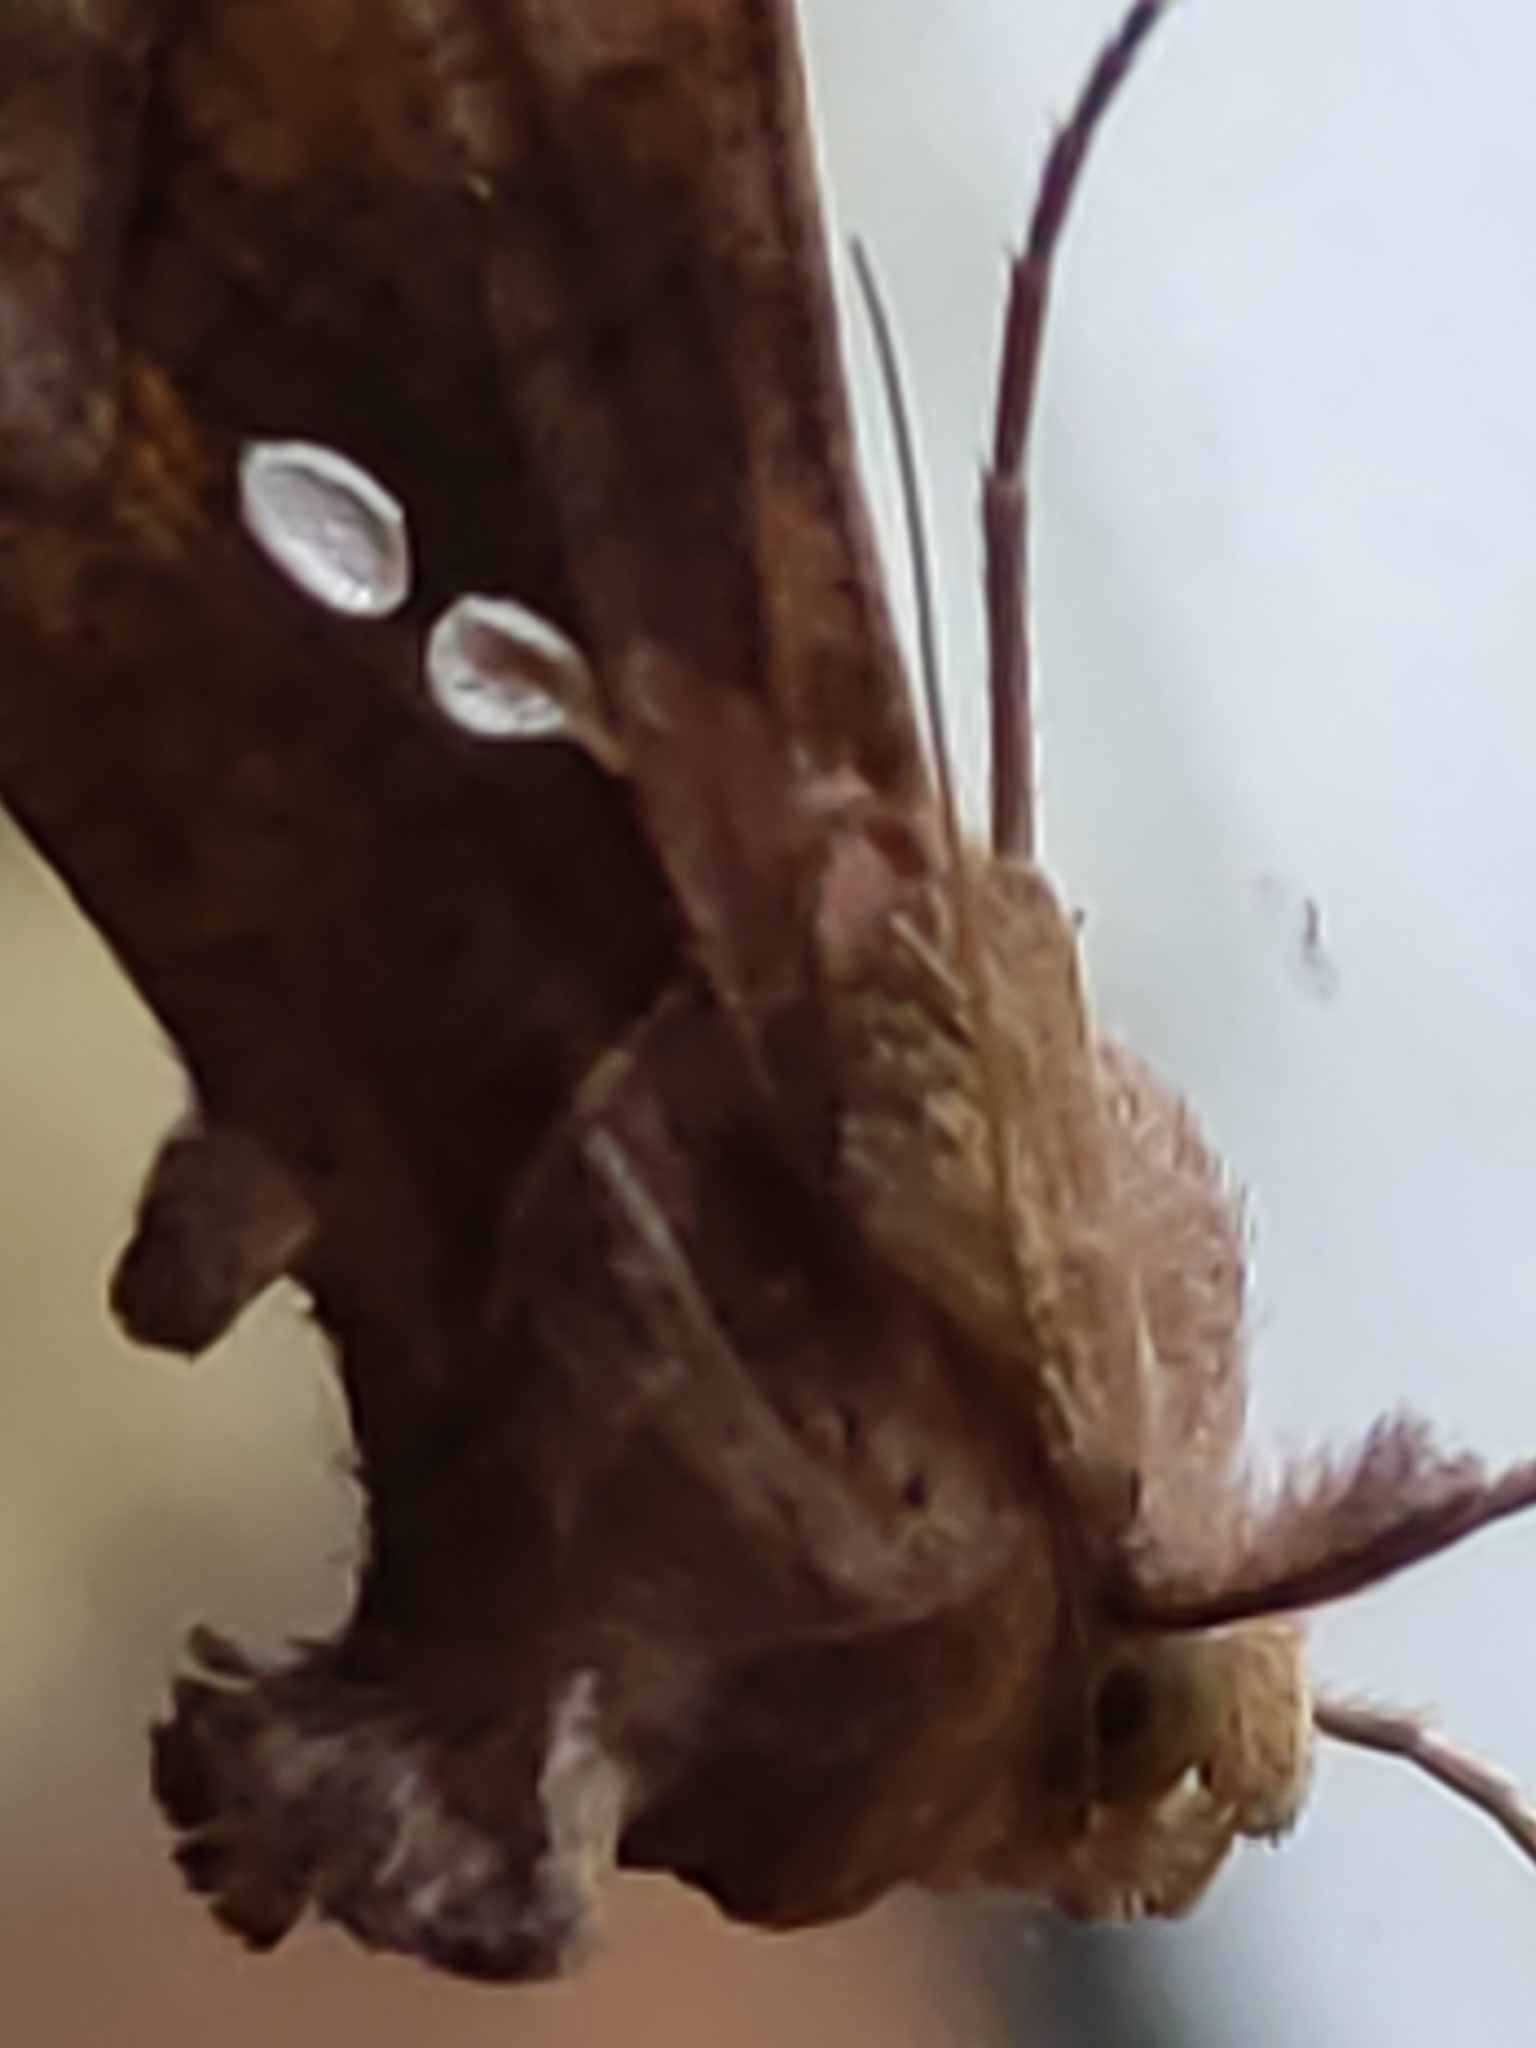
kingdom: Animalia
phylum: Arthropoda
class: Insecta
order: Lepidoptera
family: Noctuidae
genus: Chrysodeixis
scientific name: Chrysodeixis chalcites
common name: Golden twin-spot
